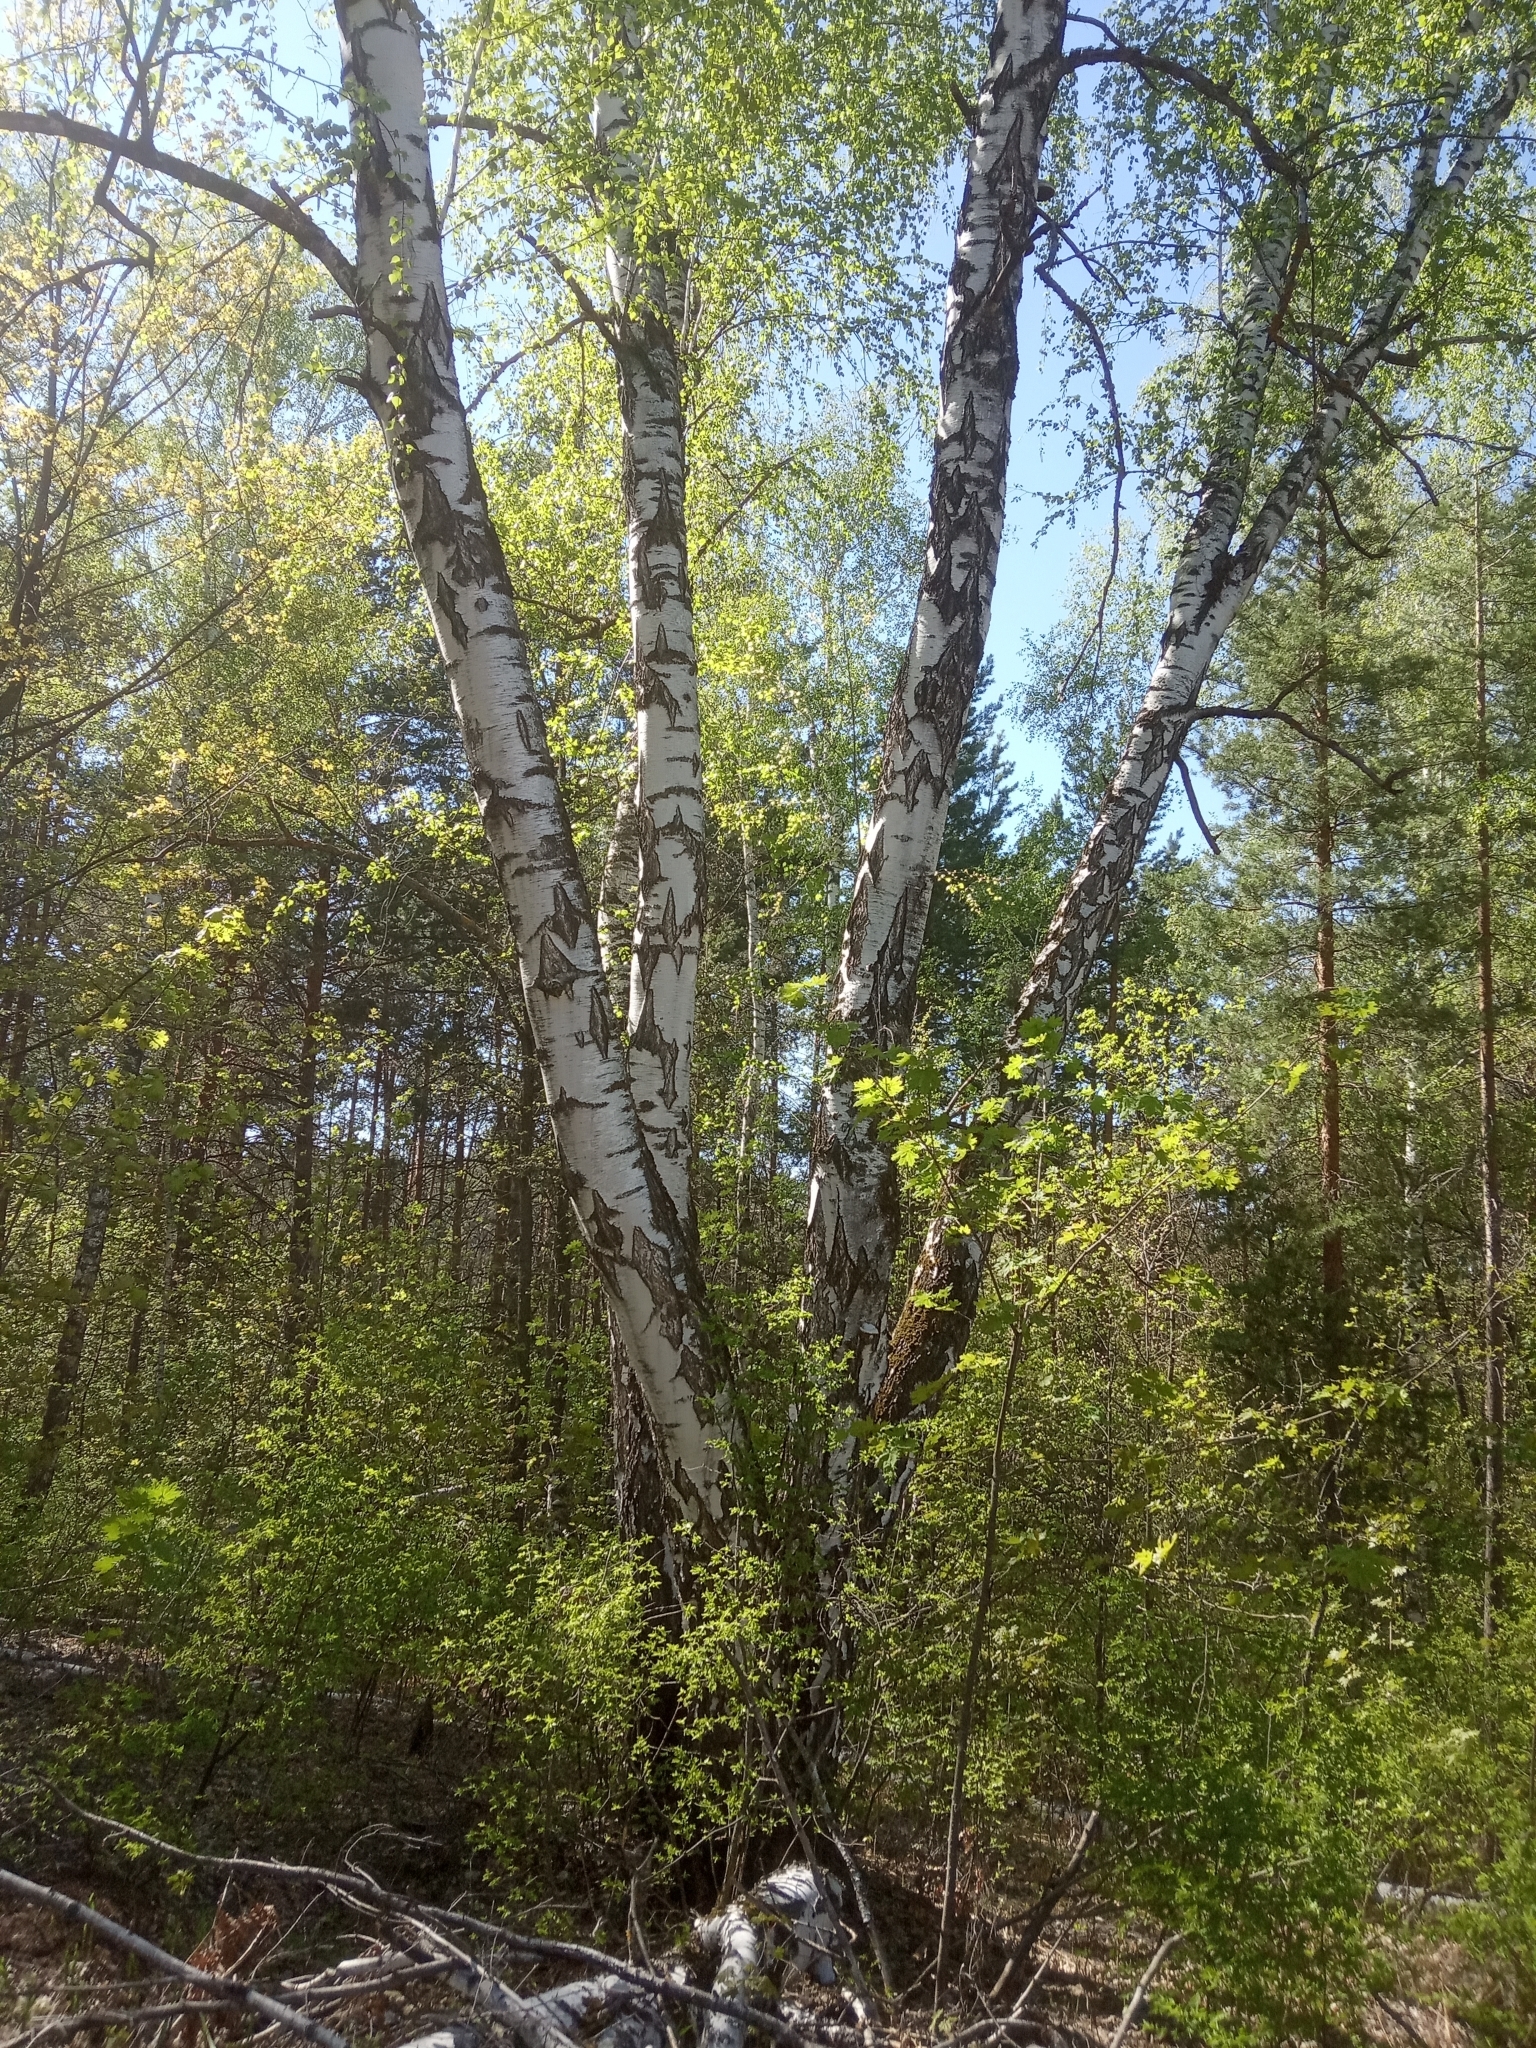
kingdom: Plantae
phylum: Tracheophyta
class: Magnoliopsida
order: Fagales
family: Betulaceae
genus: Betula
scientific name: Betula pendula
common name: Silver birch
